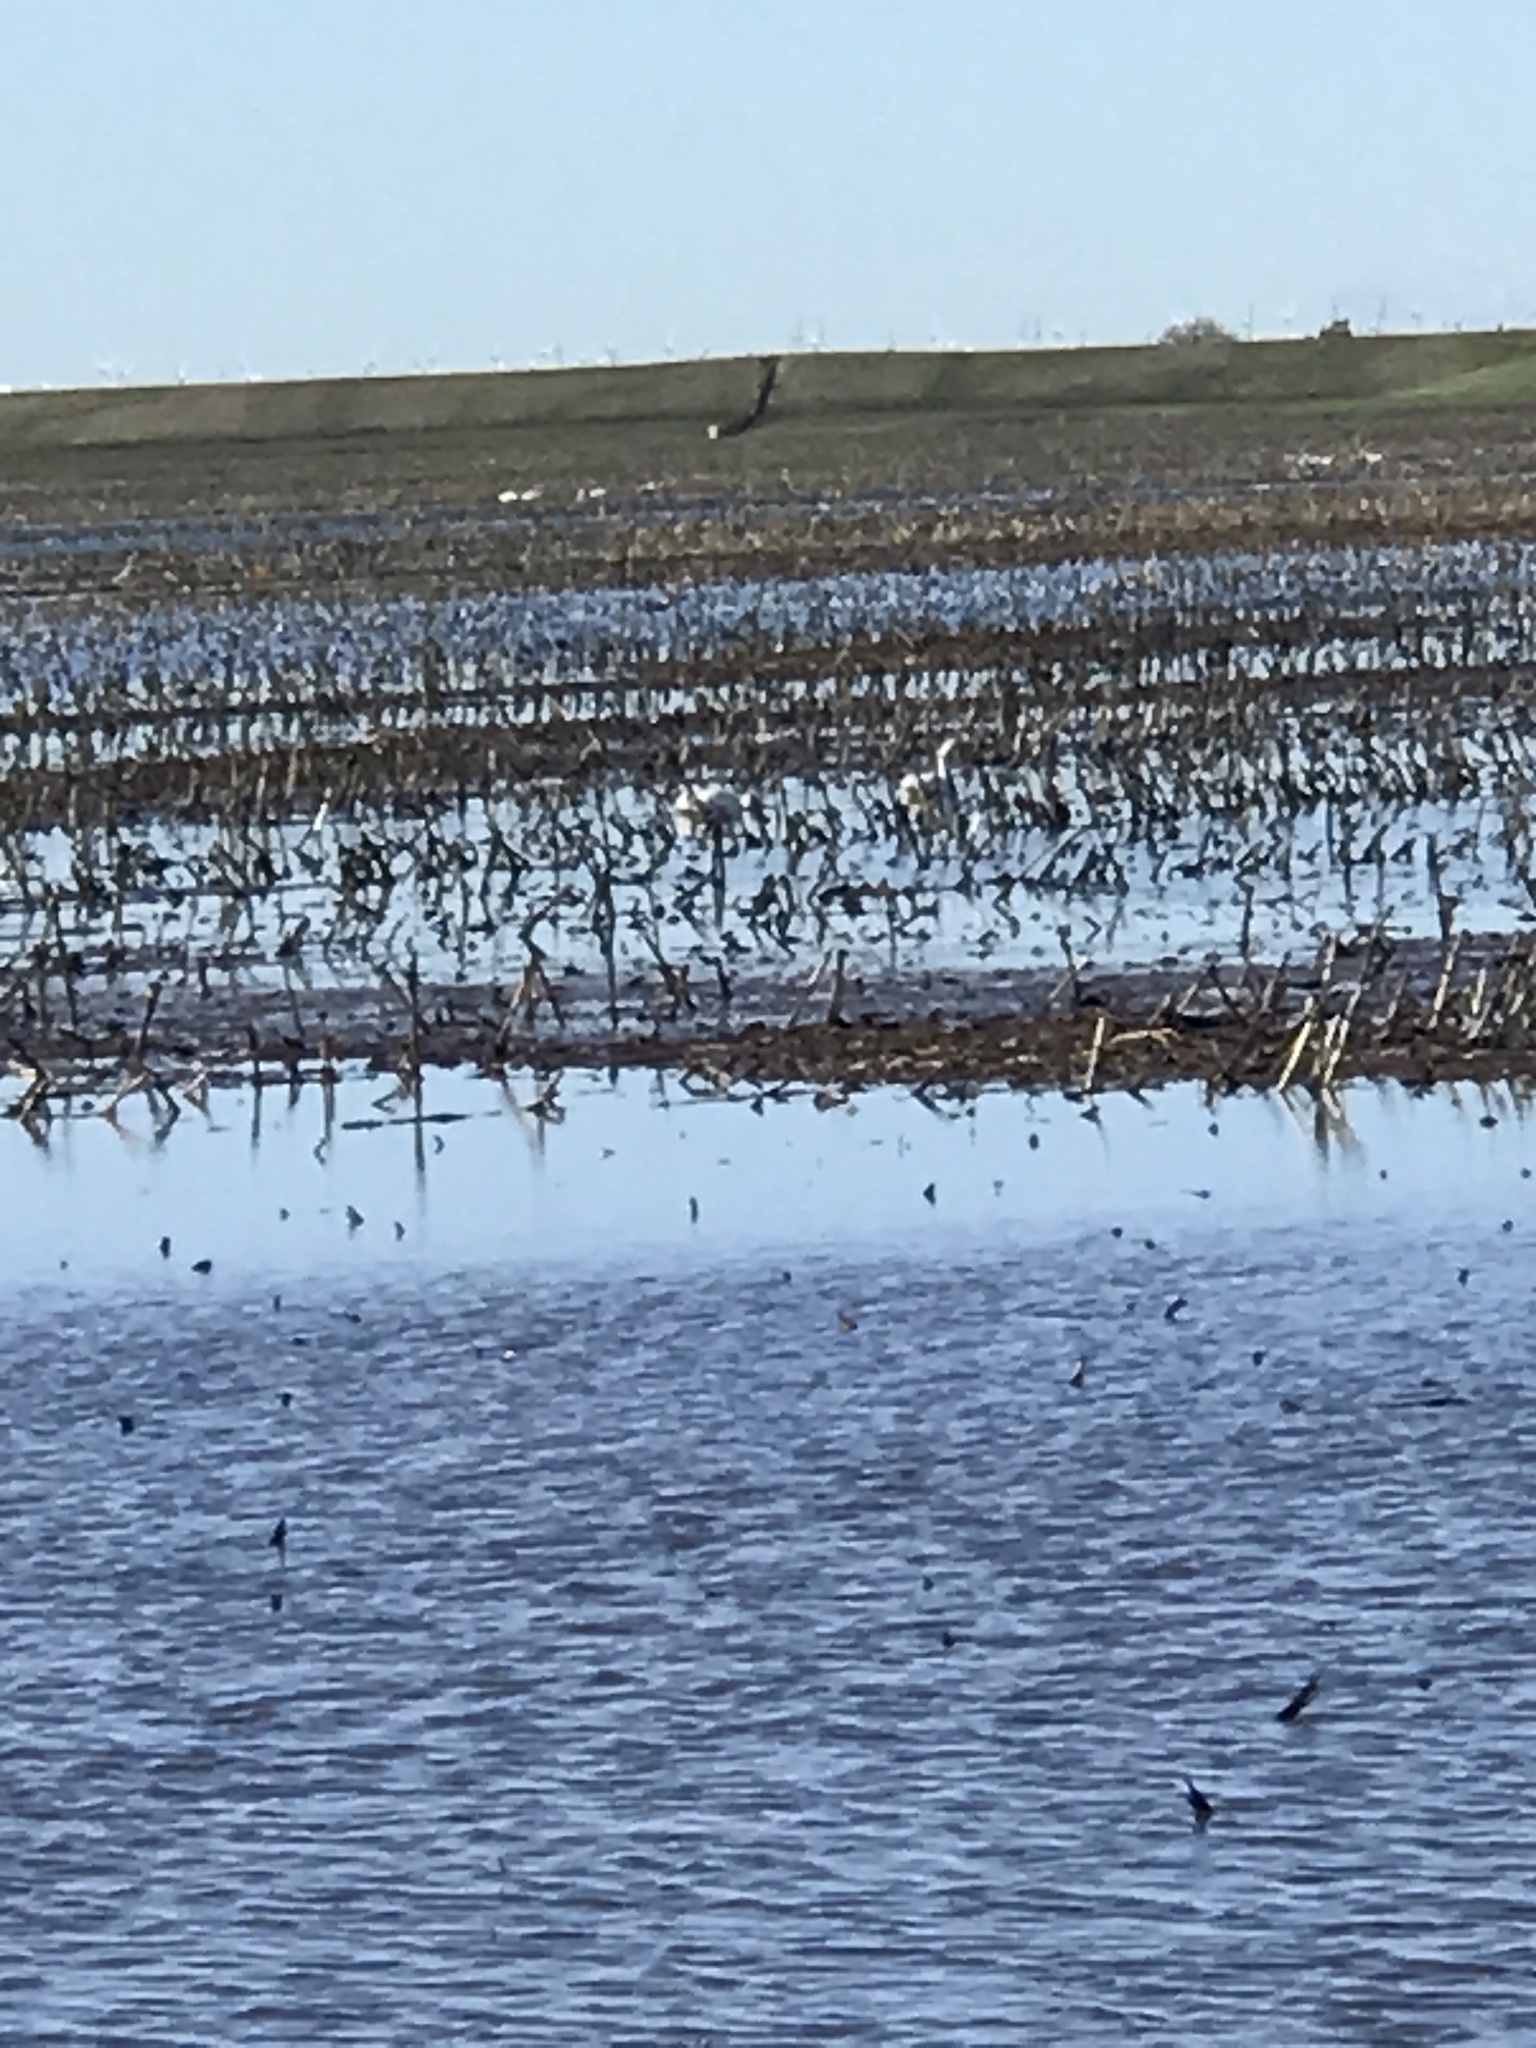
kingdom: Animalia
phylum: Chordata
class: Aves
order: Anseriformes
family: Anatidae
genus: Cygnus
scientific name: Cygnus columbianus
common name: Tundra swan
